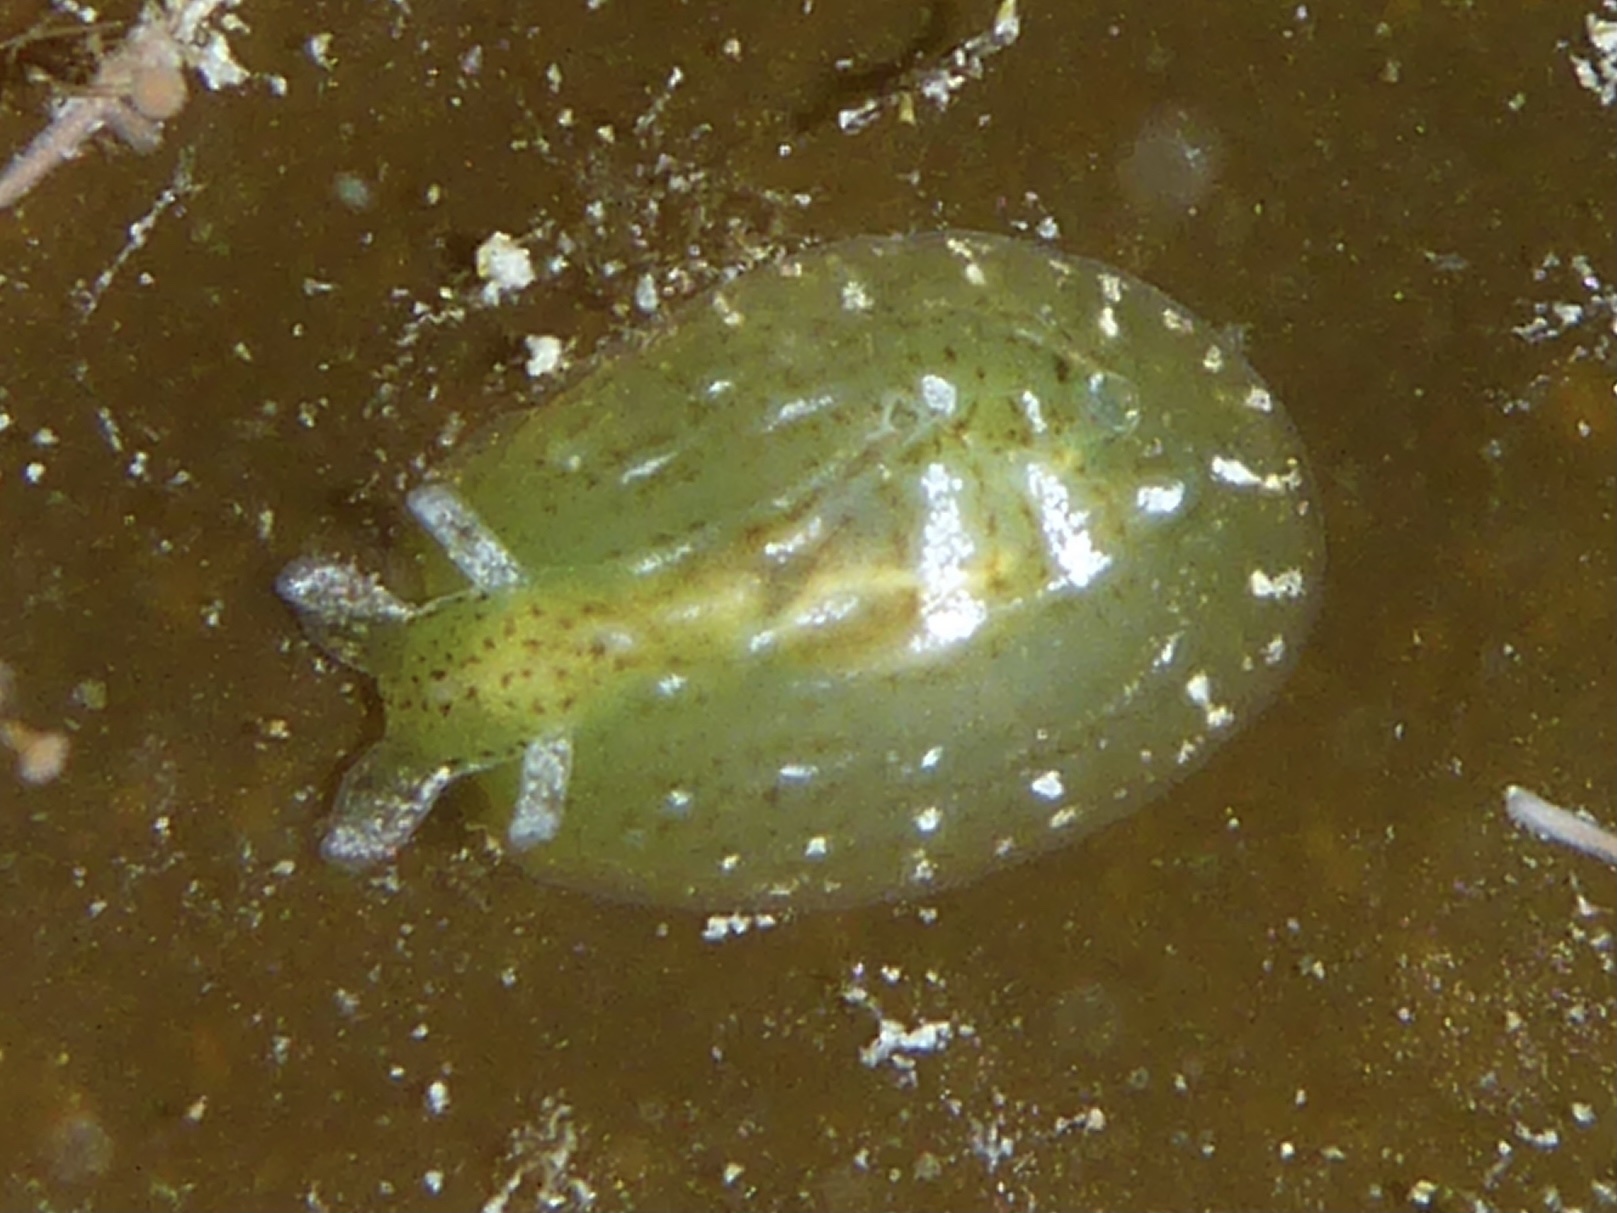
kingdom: Animalia
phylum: Mollusca
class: Gastropoda
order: Aplysiida
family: Aplysiidae
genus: Phyllaplysia
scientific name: Phyllaplysia taylori
